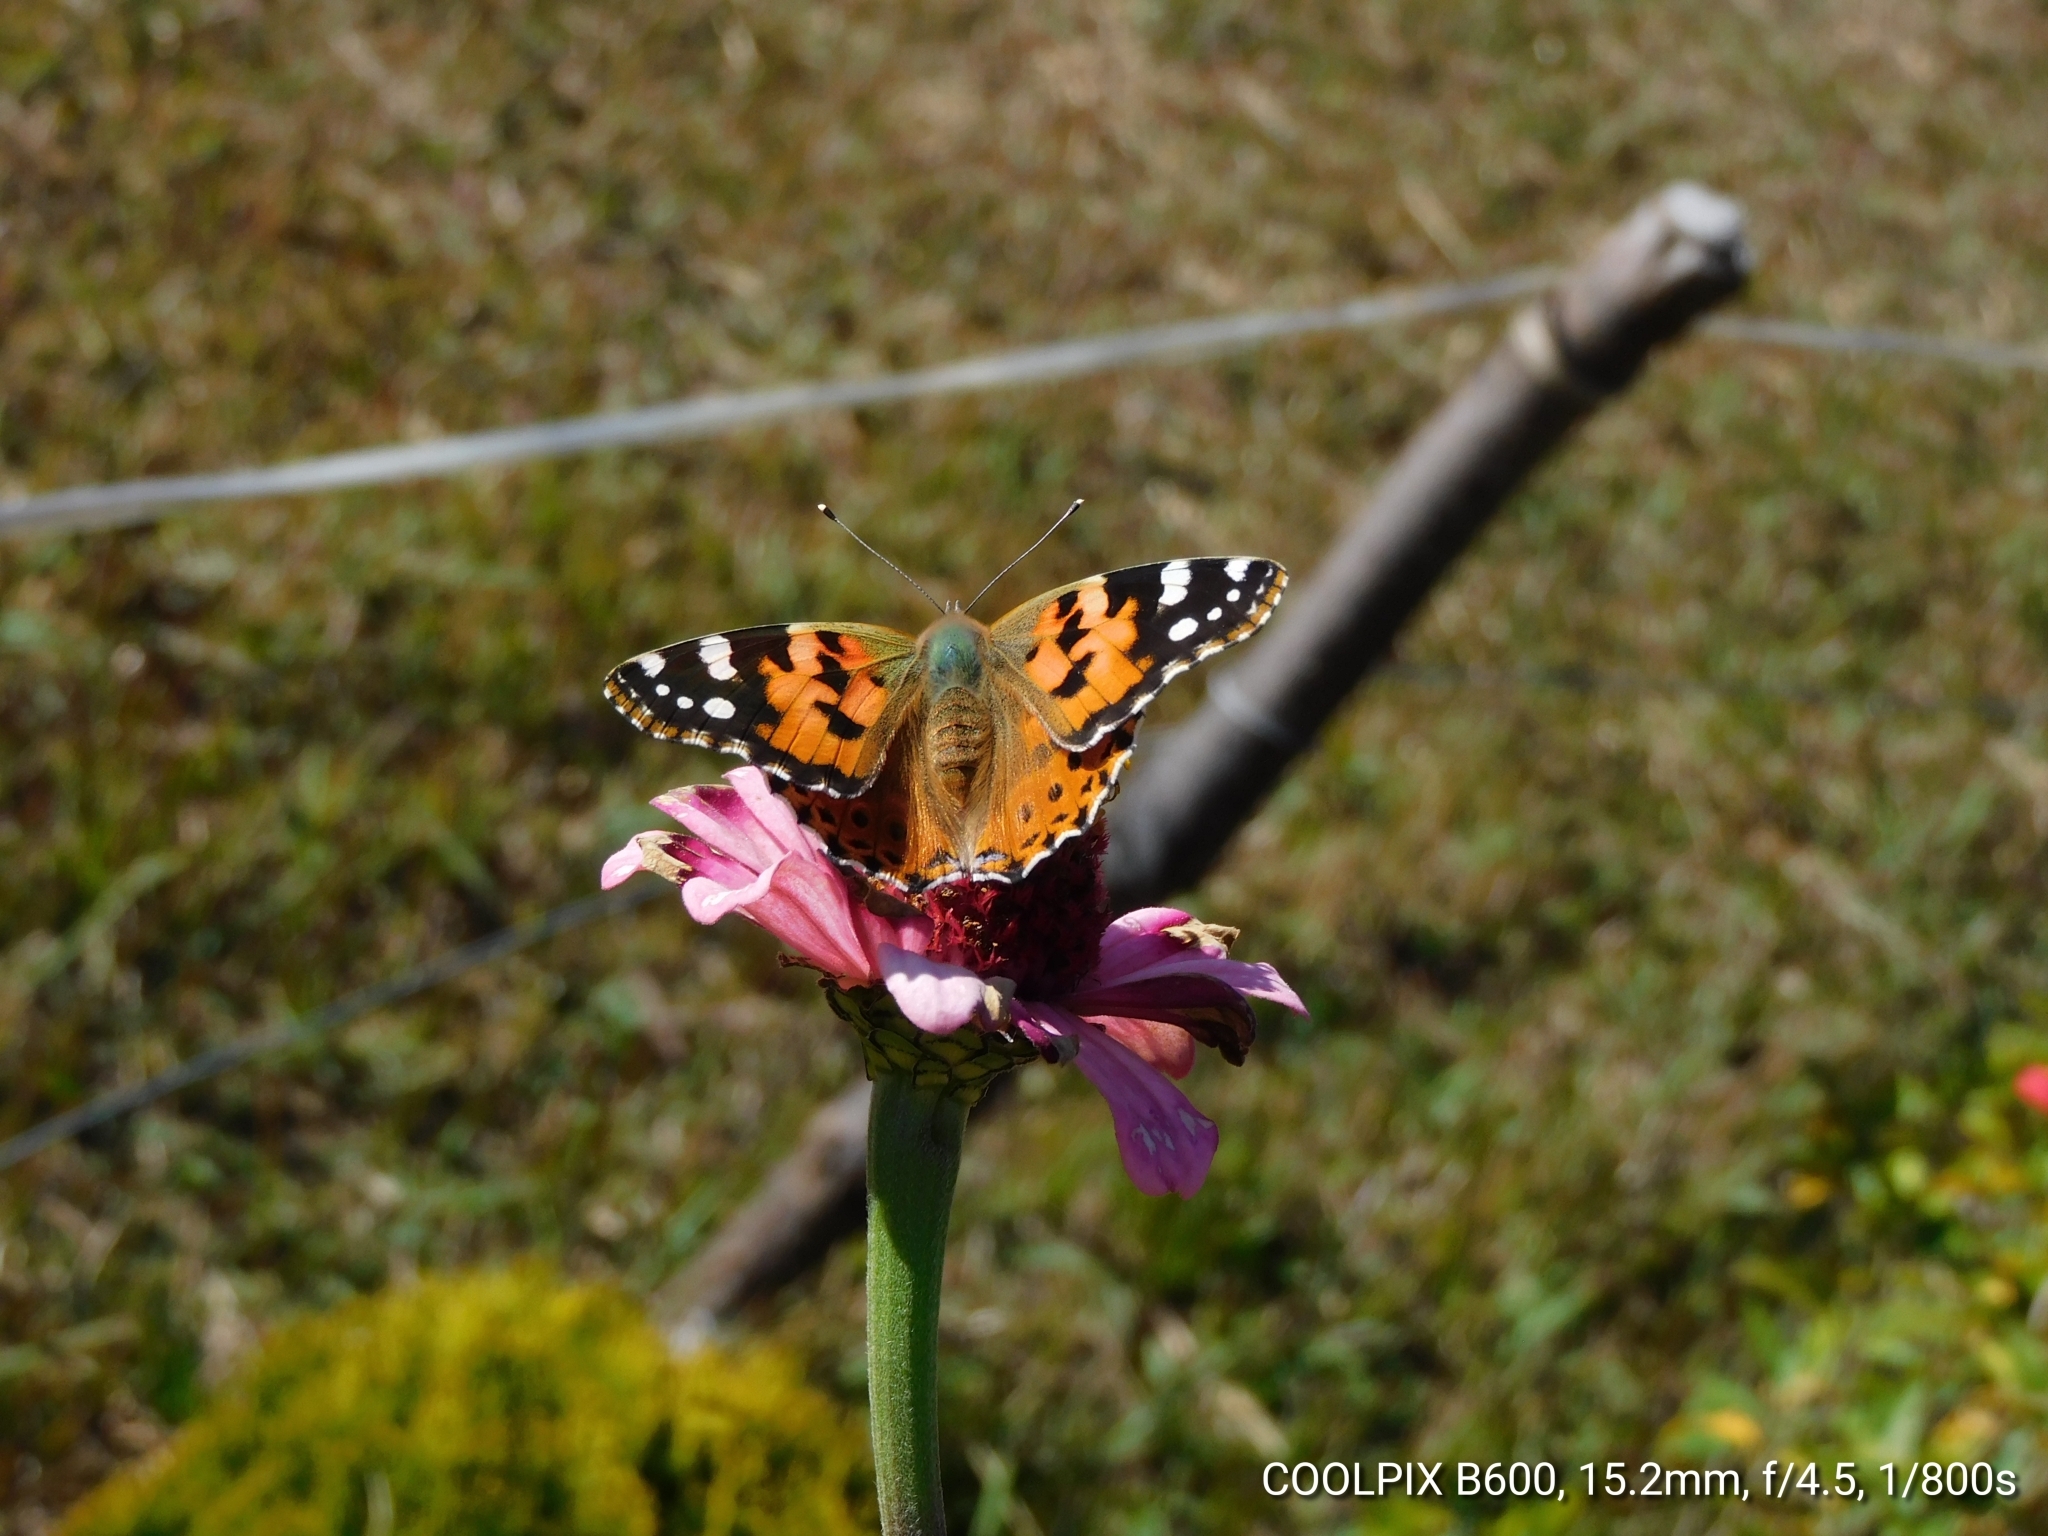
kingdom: Animalia
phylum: Arthropoda
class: Insecta
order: Lepidoptera
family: Nymphalidae
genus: Vanessa
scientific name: Vanessa cardui
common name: Painted lady
